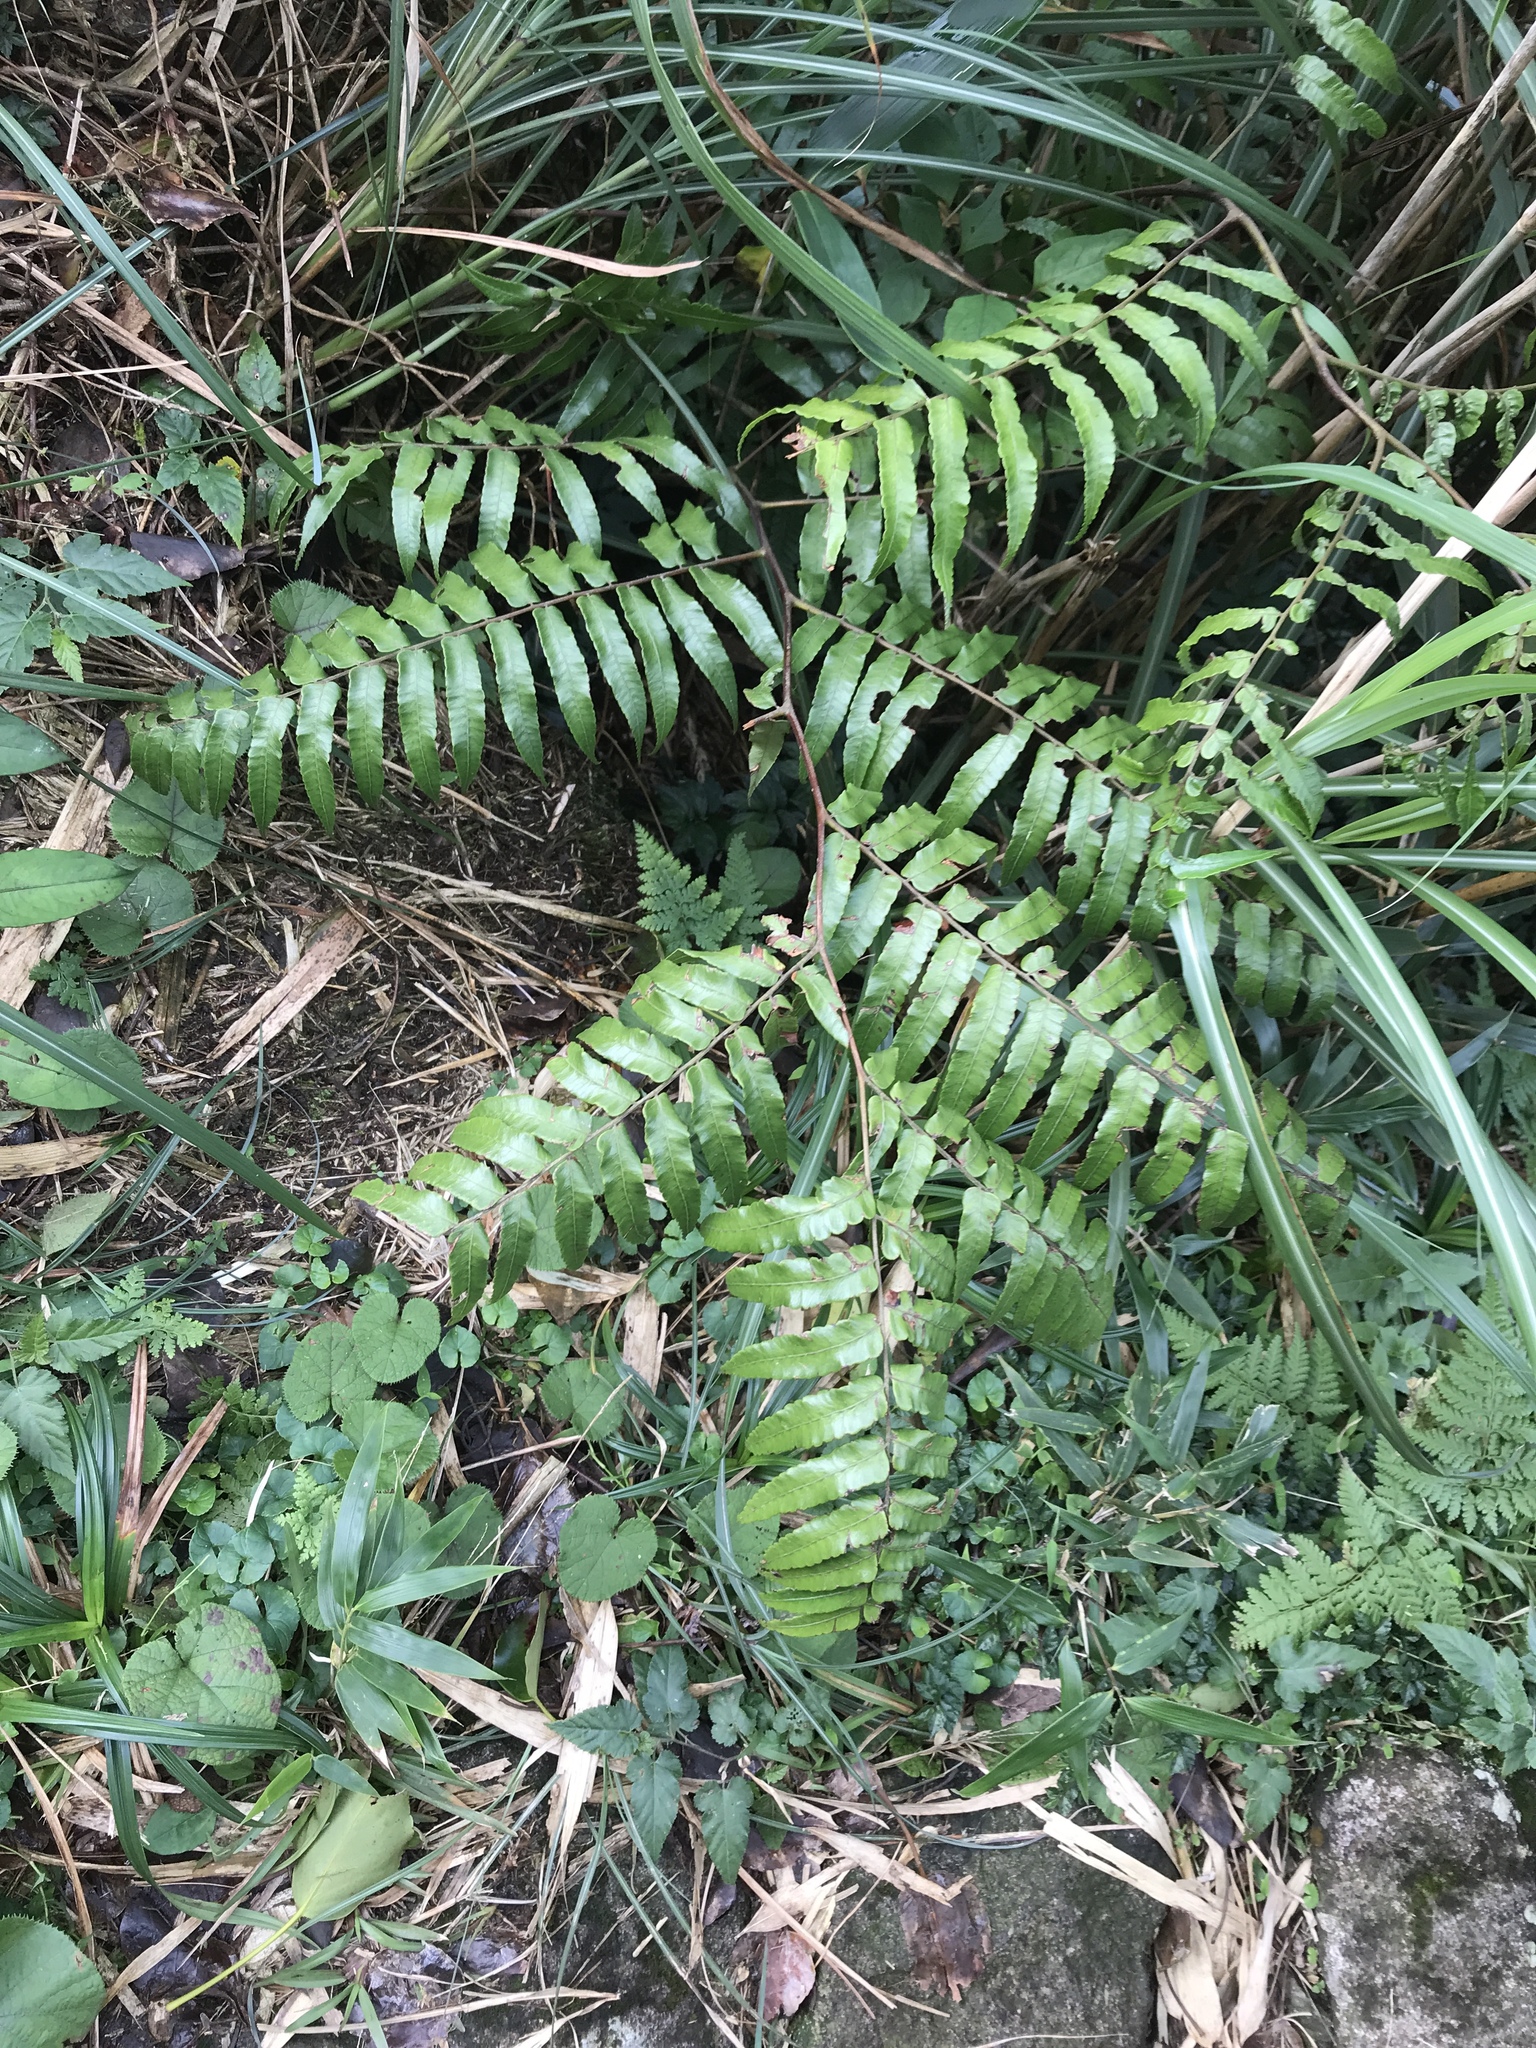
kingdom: Plantae
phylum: Tracheophyta
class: Polypodiopsida
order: Cyatheales
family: Cyatheaceae
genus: Gymnosphaera
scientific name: Gymnosphaera podophylla
